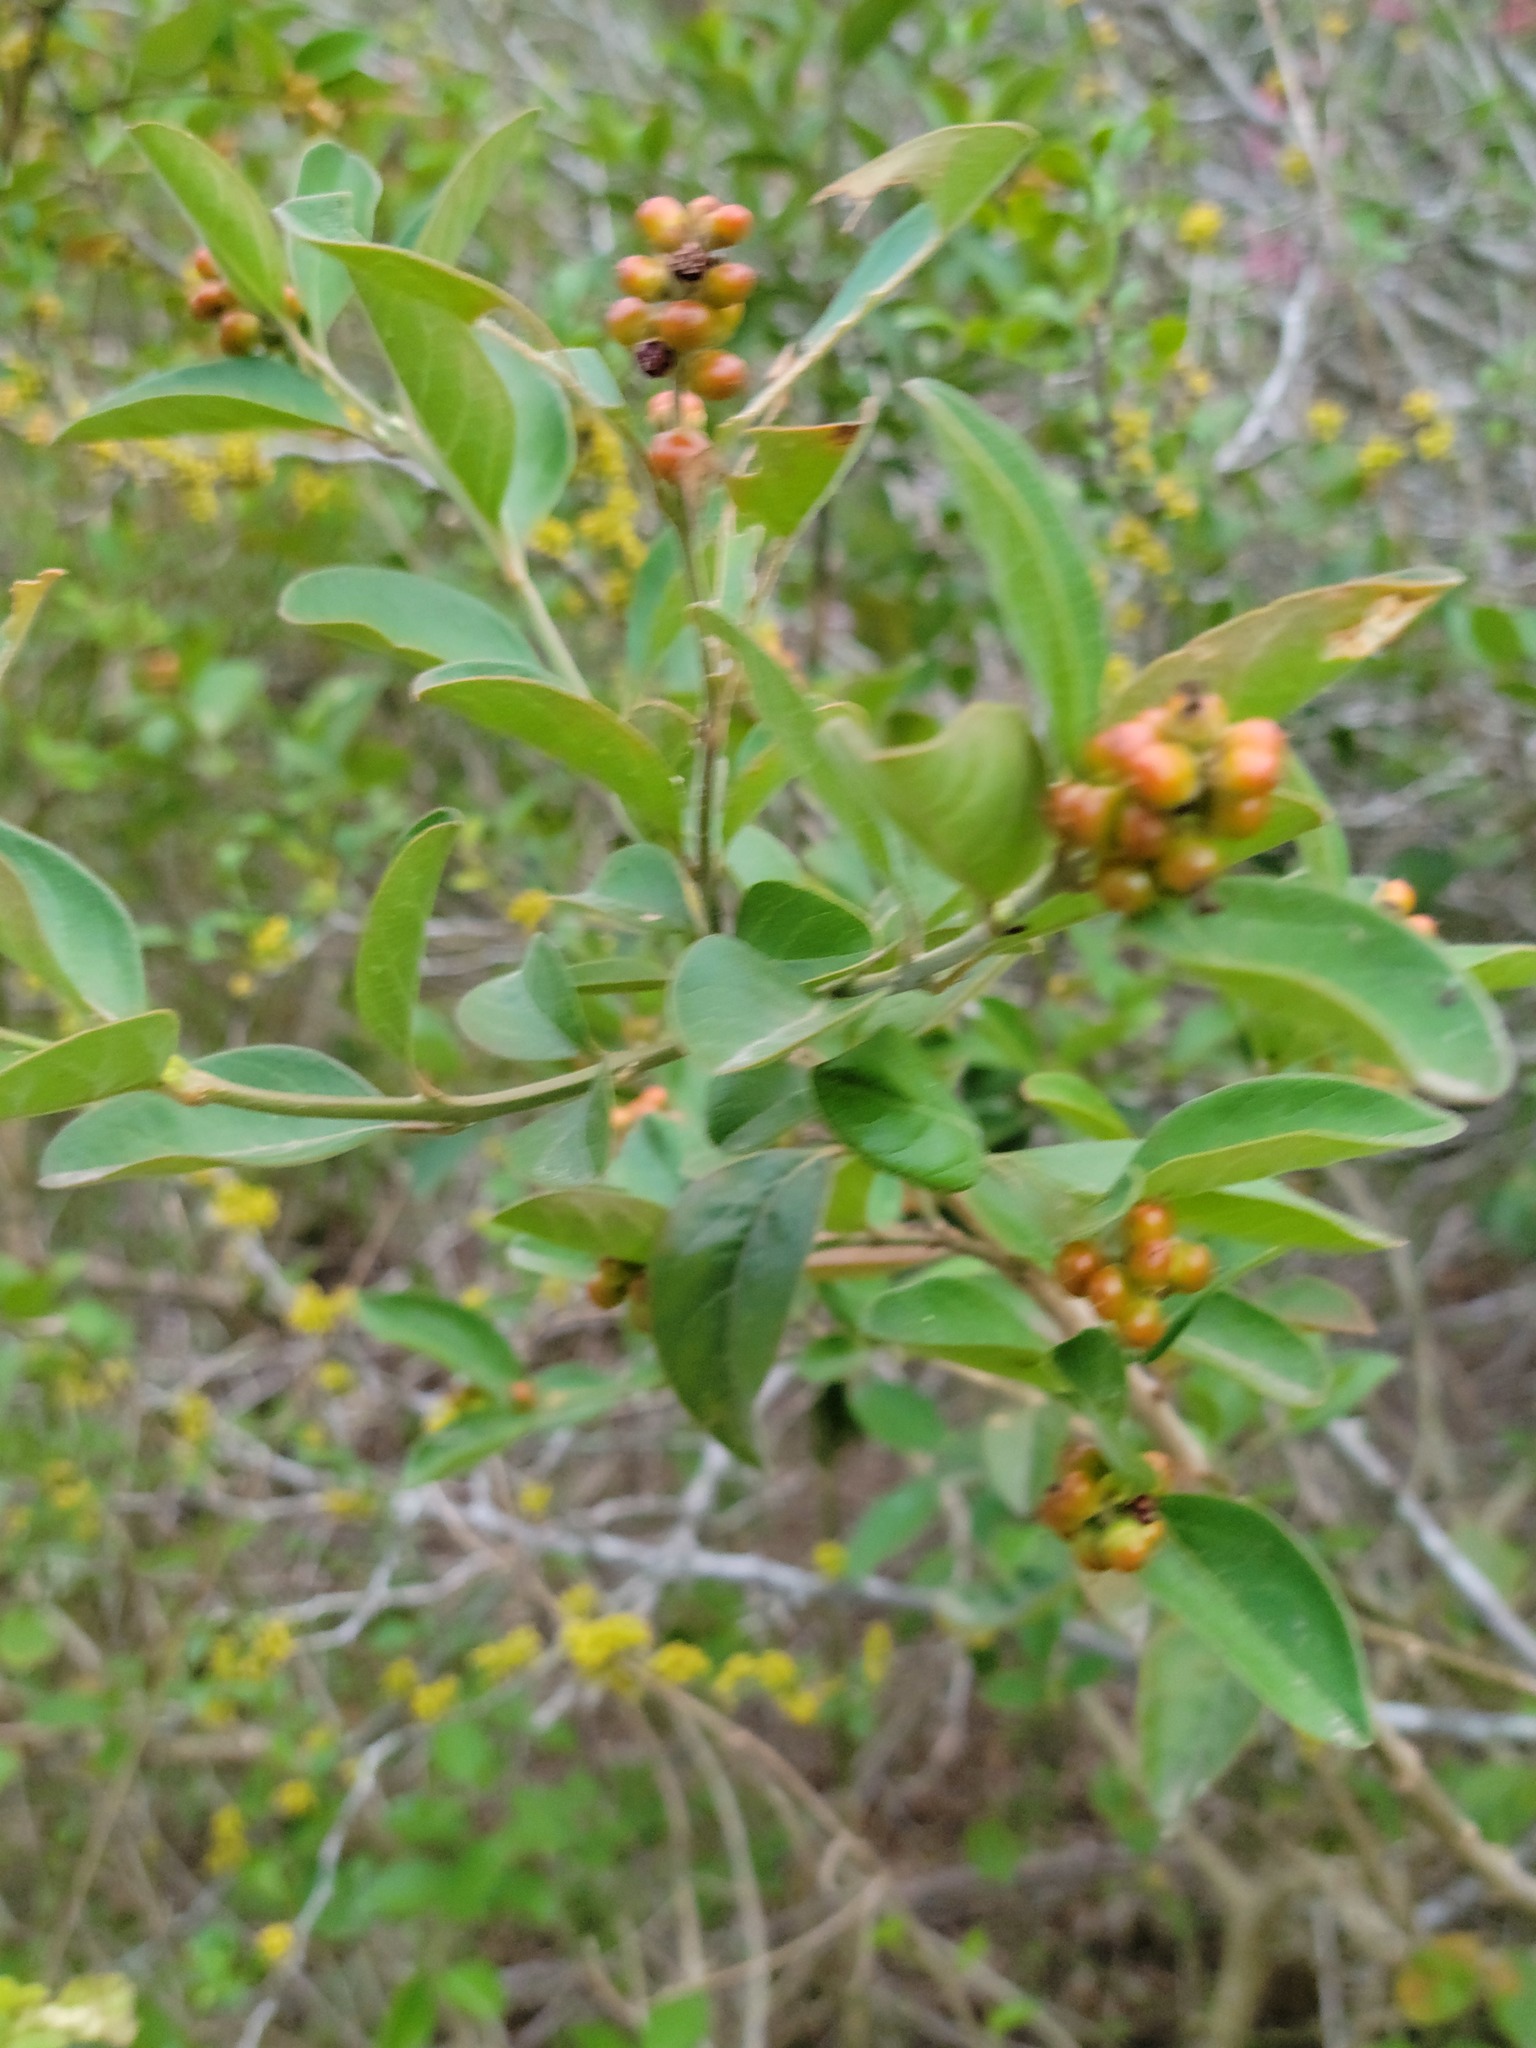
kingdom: Plantae
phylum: Tracheophyta
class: Magnoliopsida
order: Lamiales
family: Verbenaceae
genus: Citharexylum
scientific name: Citharexylum berlandieri
